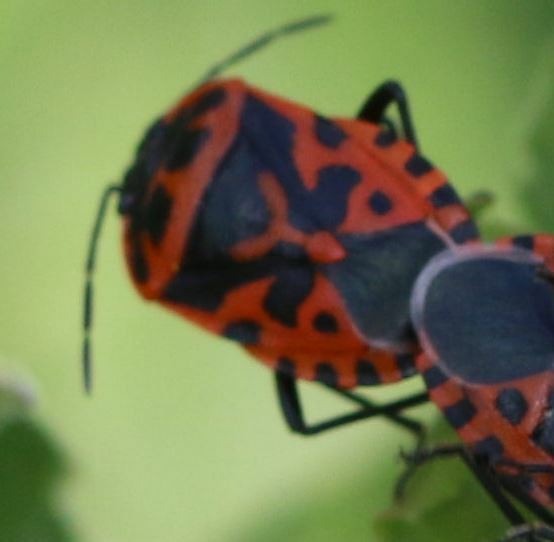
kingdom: Animalia
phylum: Arthropoda
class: Insecta
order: Hemiptera
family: Pentatomidae
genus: Eurydema
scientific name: Eurydema ventralis
